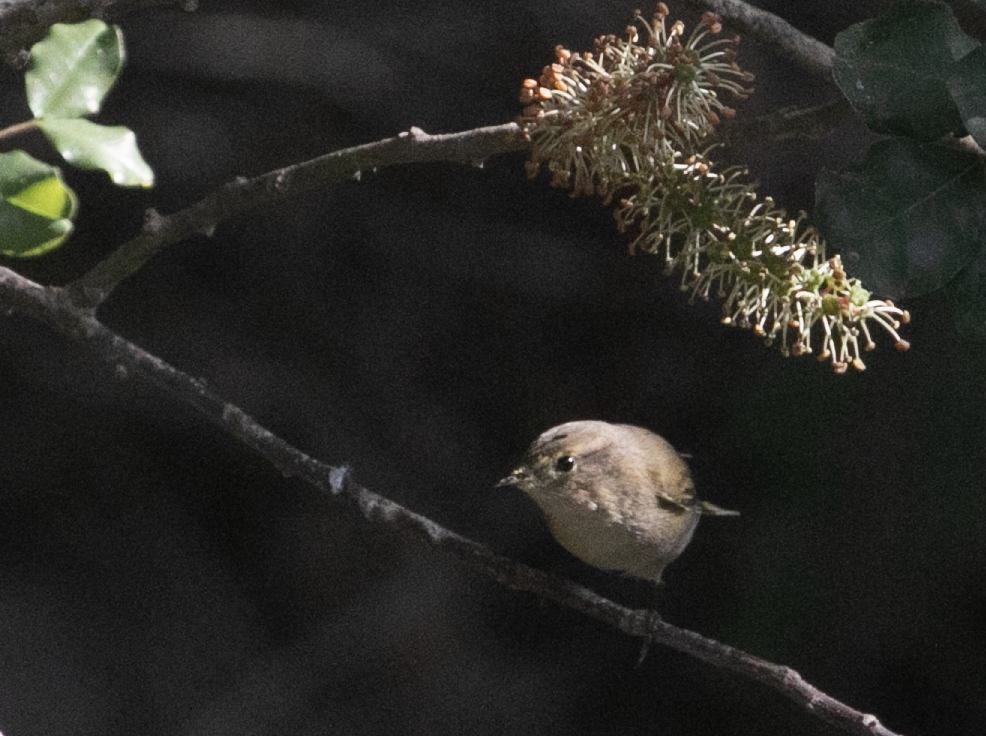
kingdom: Animalia
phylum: Chordata
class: Aves
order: Passeriformes
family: Phylloscopidae
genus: Phylloscopus
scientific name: Phylloscopus collybita
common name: Common chiffchaff
